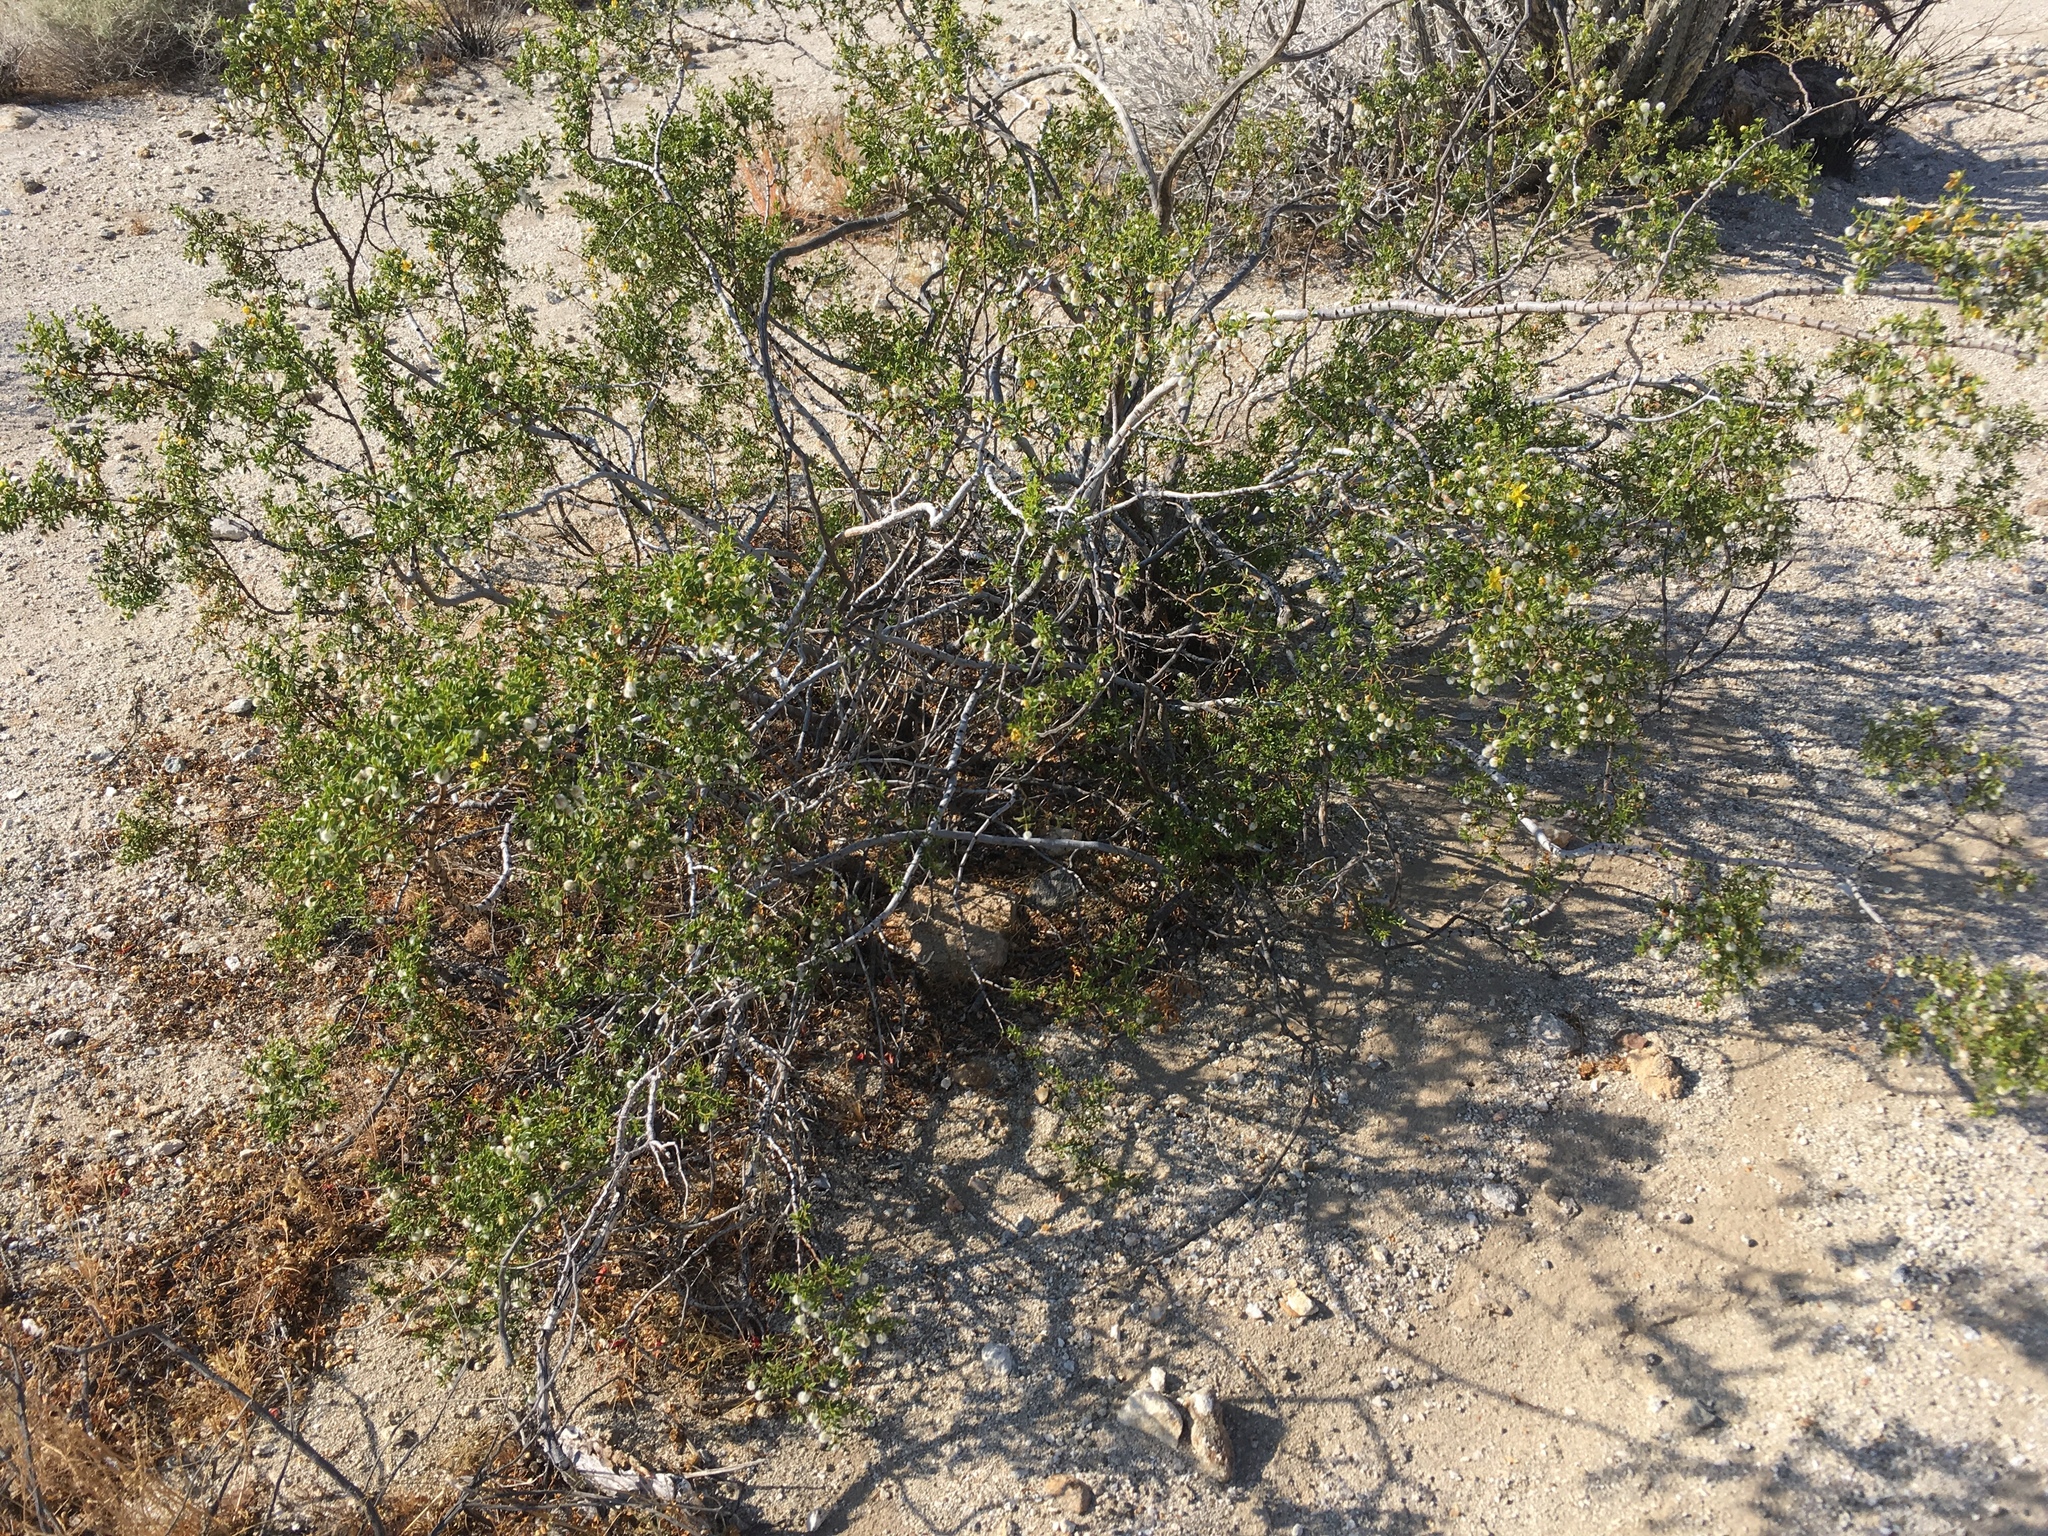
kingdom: Plantae
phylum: Tracheophyta
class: Magnoliopsida
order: Zygophyllales
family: Zygophyllaceae
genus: Larrea
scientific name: Larrea tridentata
